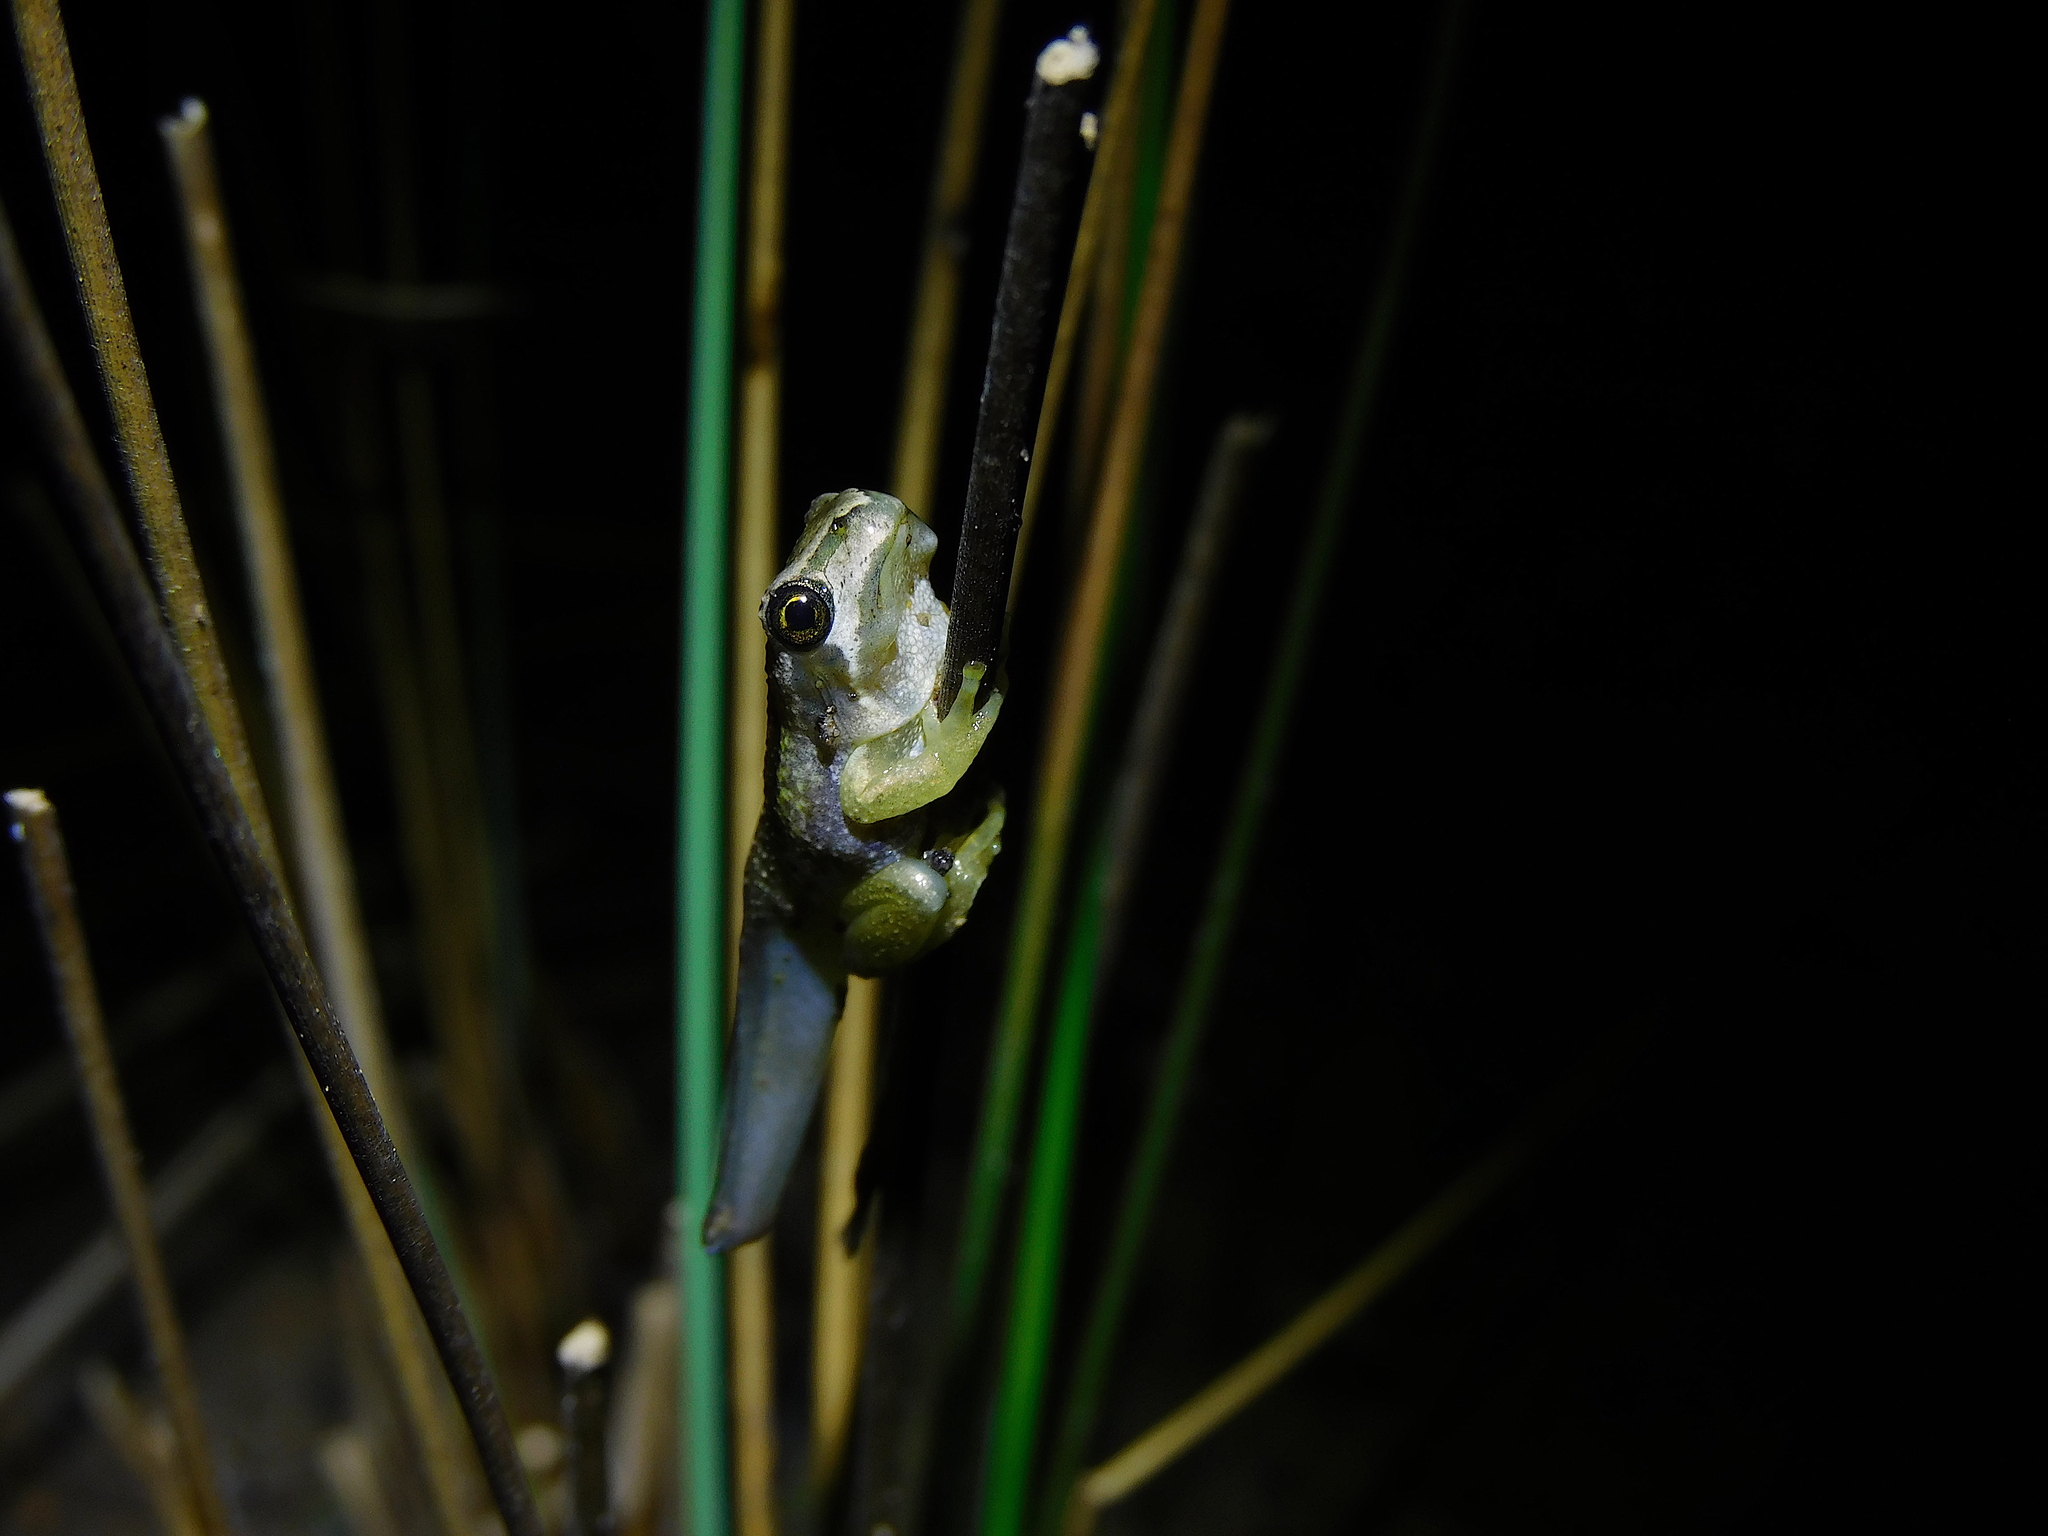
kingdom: Animalia
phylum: Chordata
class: Amphibia
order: Anura
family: Pelodryadidae
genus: Litoria
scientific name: Litoria ewingii
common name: Southern brown tree frog
